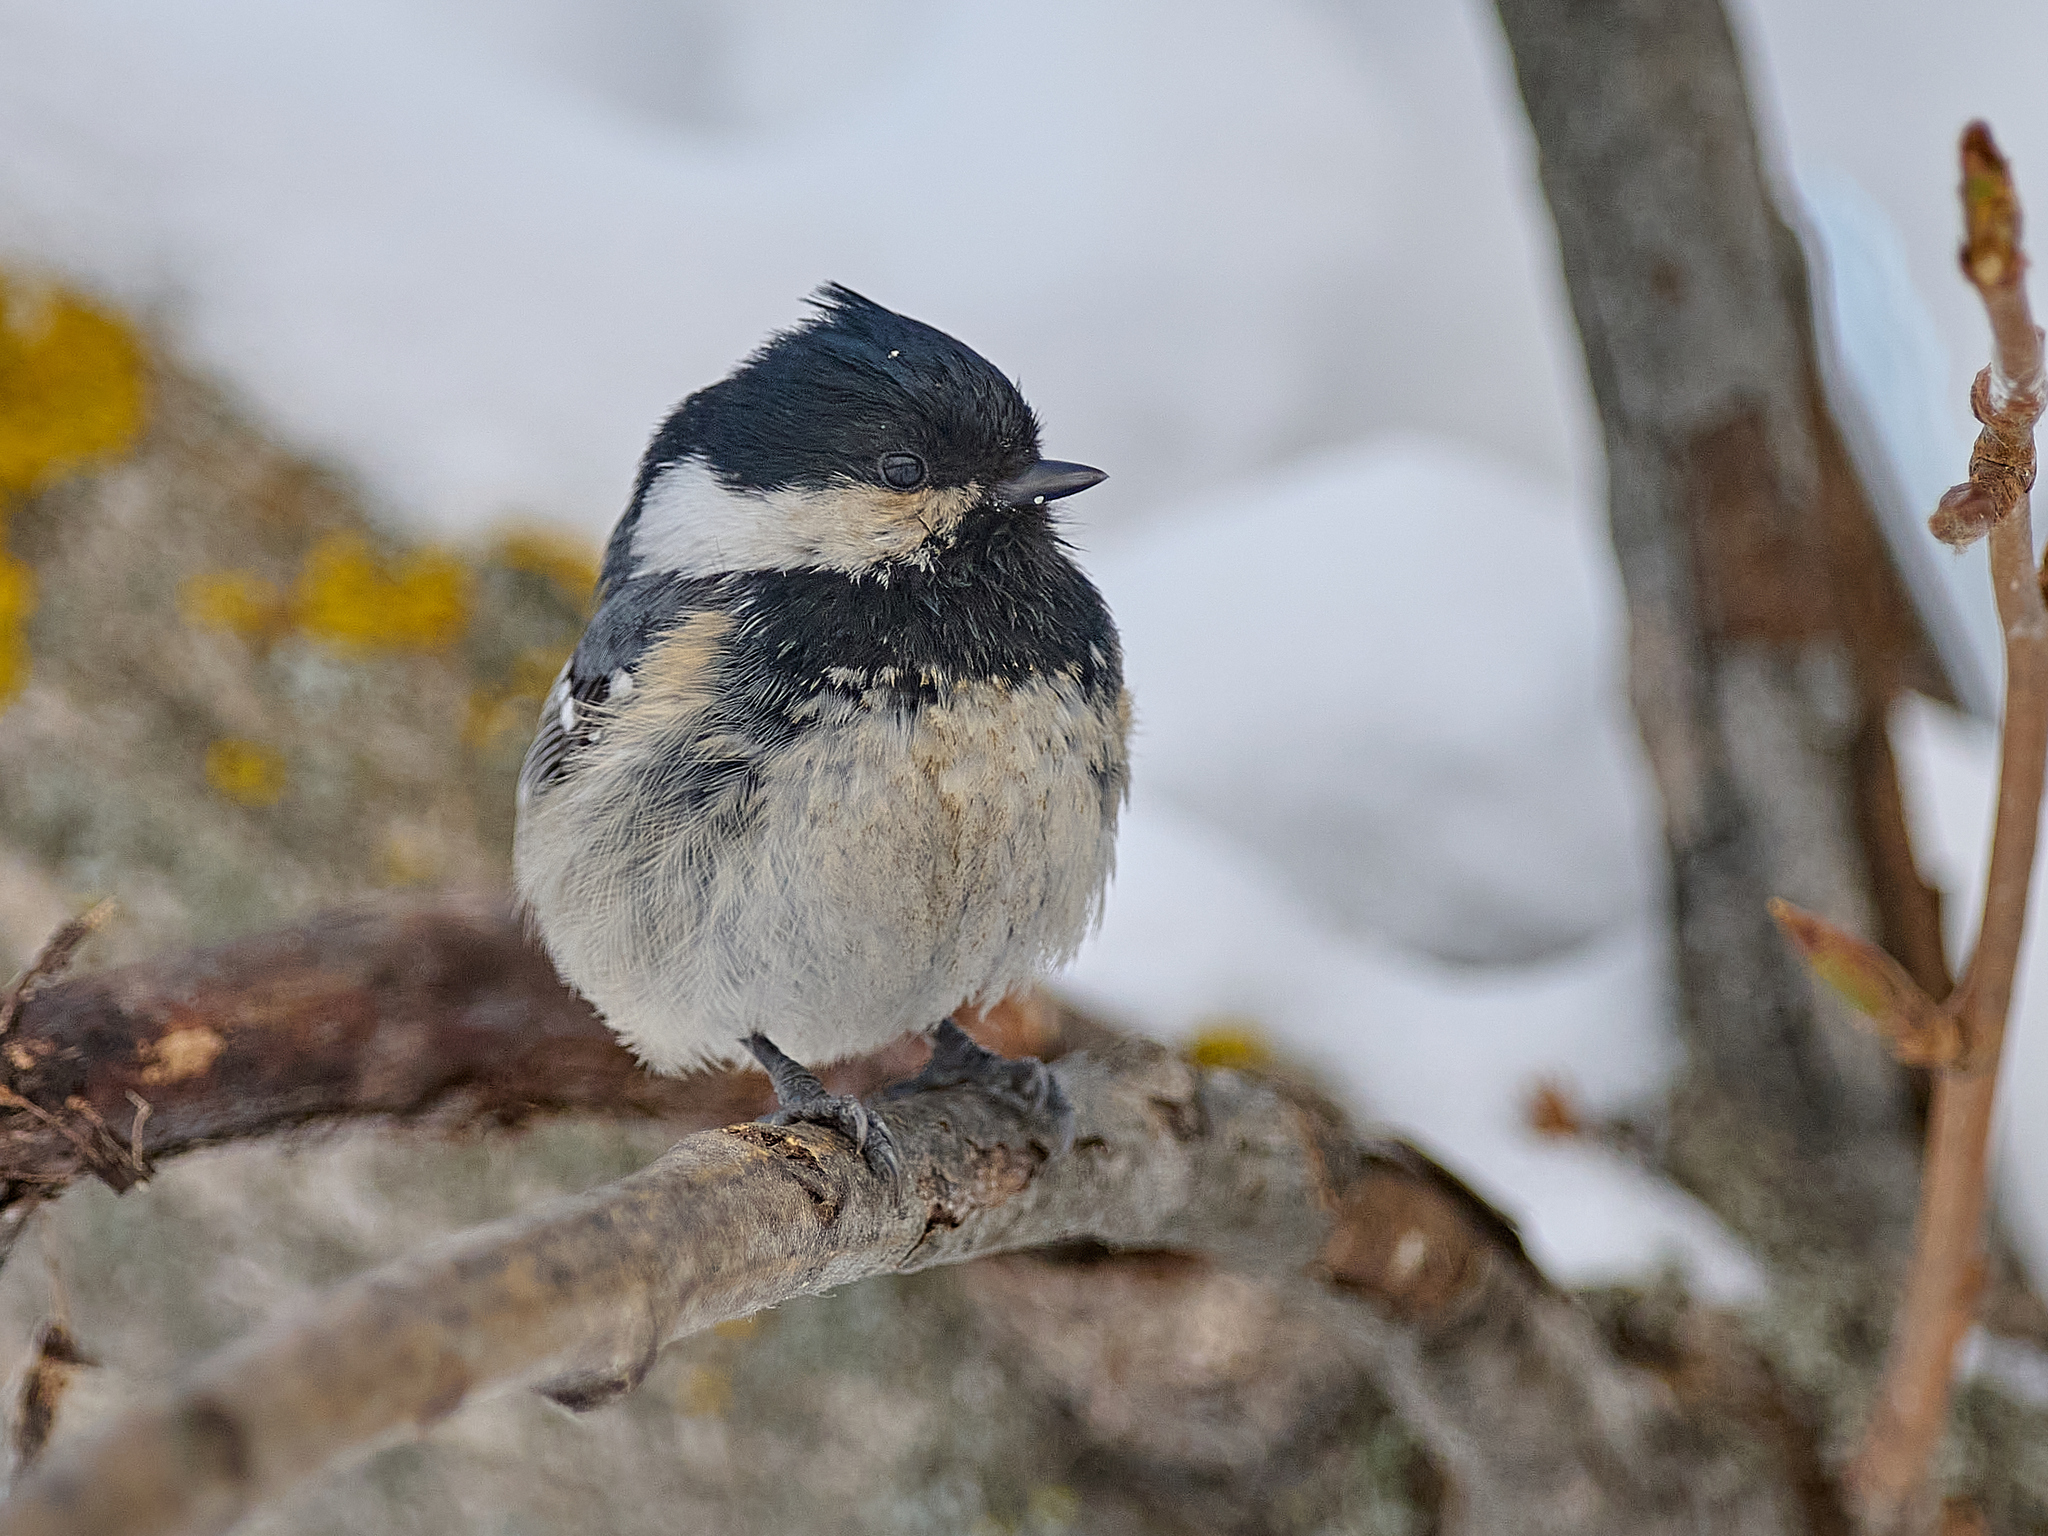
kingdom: Animalia
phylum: Chordata
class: Aves
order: Passeriformes
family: Paridae
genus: Periparus
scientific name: Periparus ater
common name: Coal tit
